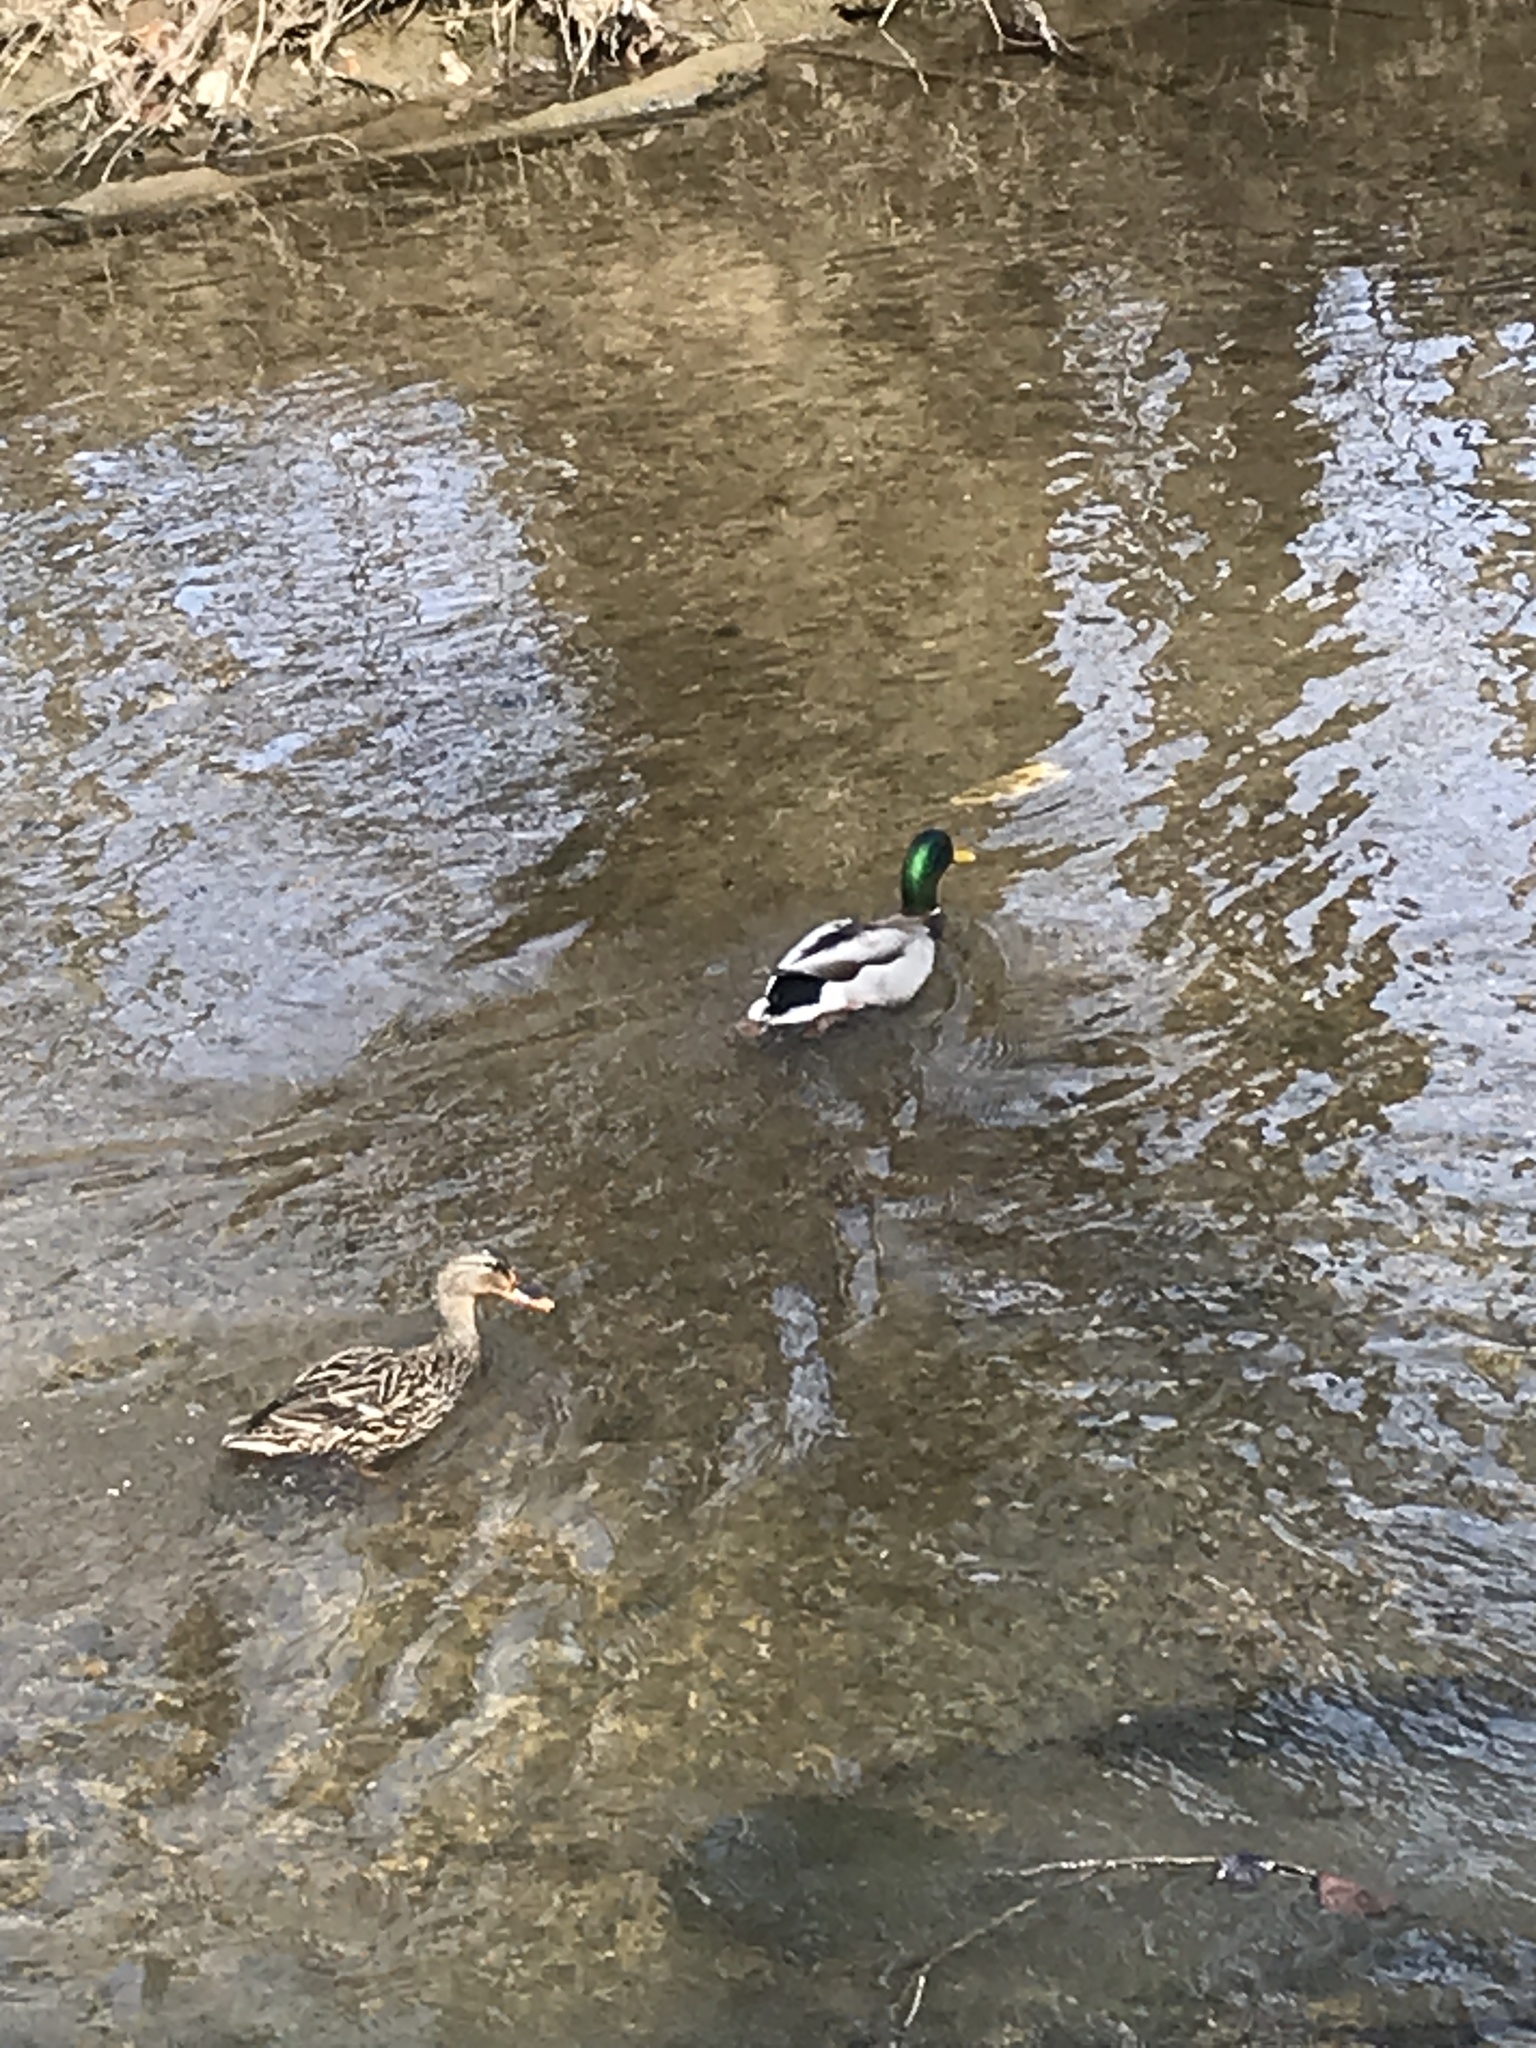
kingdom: Animalia
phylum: Chordata
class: Aves
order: Anseriformes
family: Anatidae
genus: Anas
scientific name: Anas platyrhynchos
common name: Mallard
